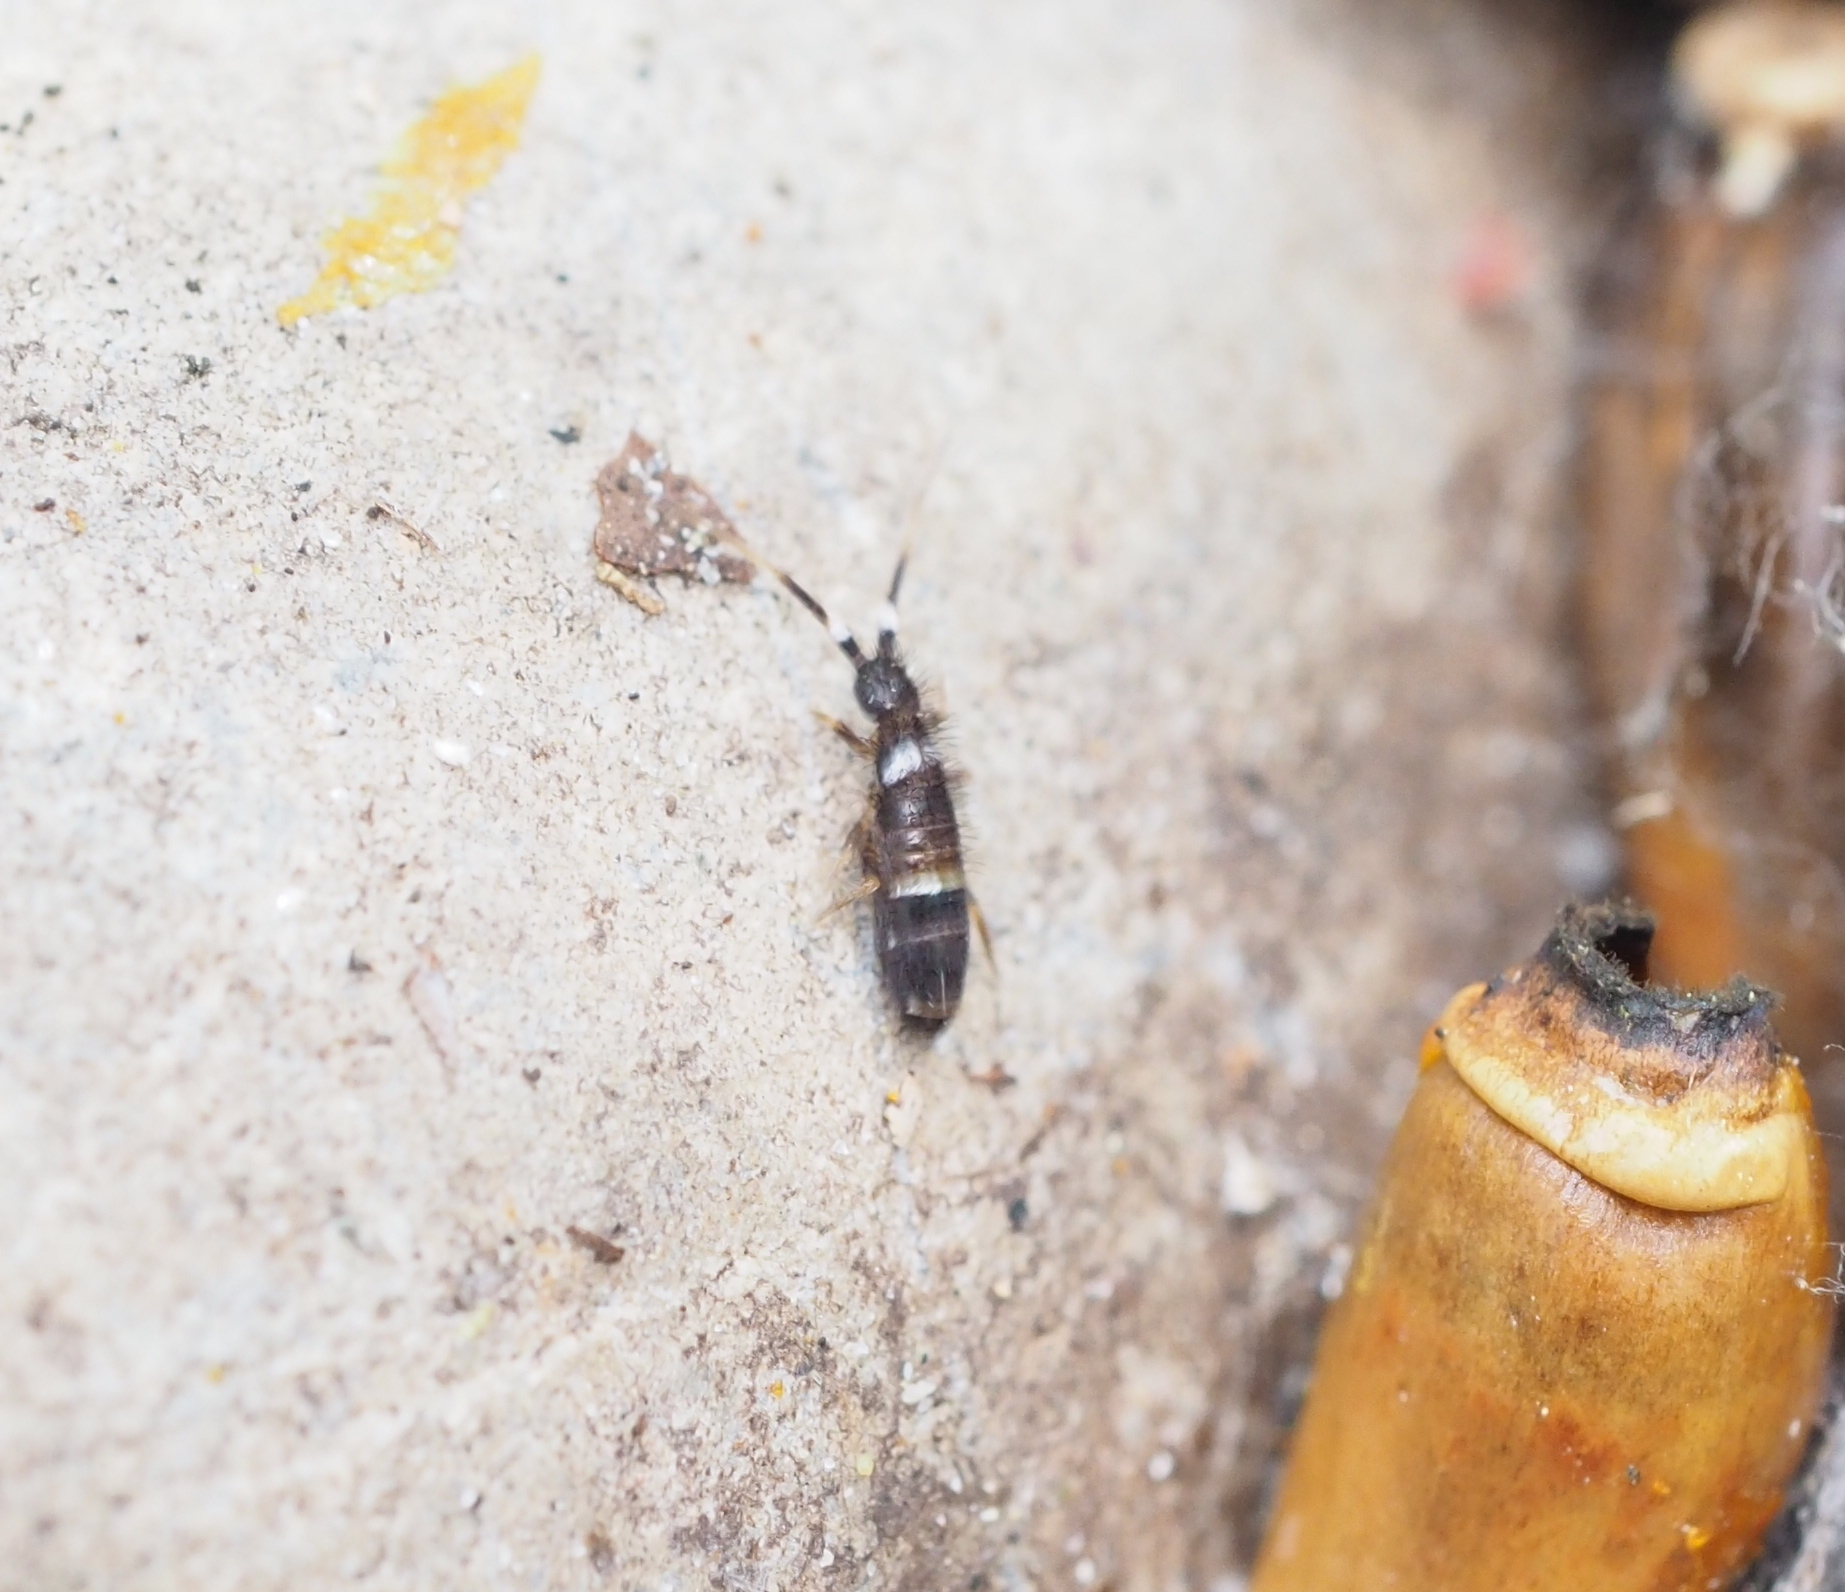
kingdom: Animalia
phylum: Arthropoda
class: Collembola
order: Entomobryomorpha
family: Orchesellidae
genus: Orchesella
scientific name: Orchesella cincta
